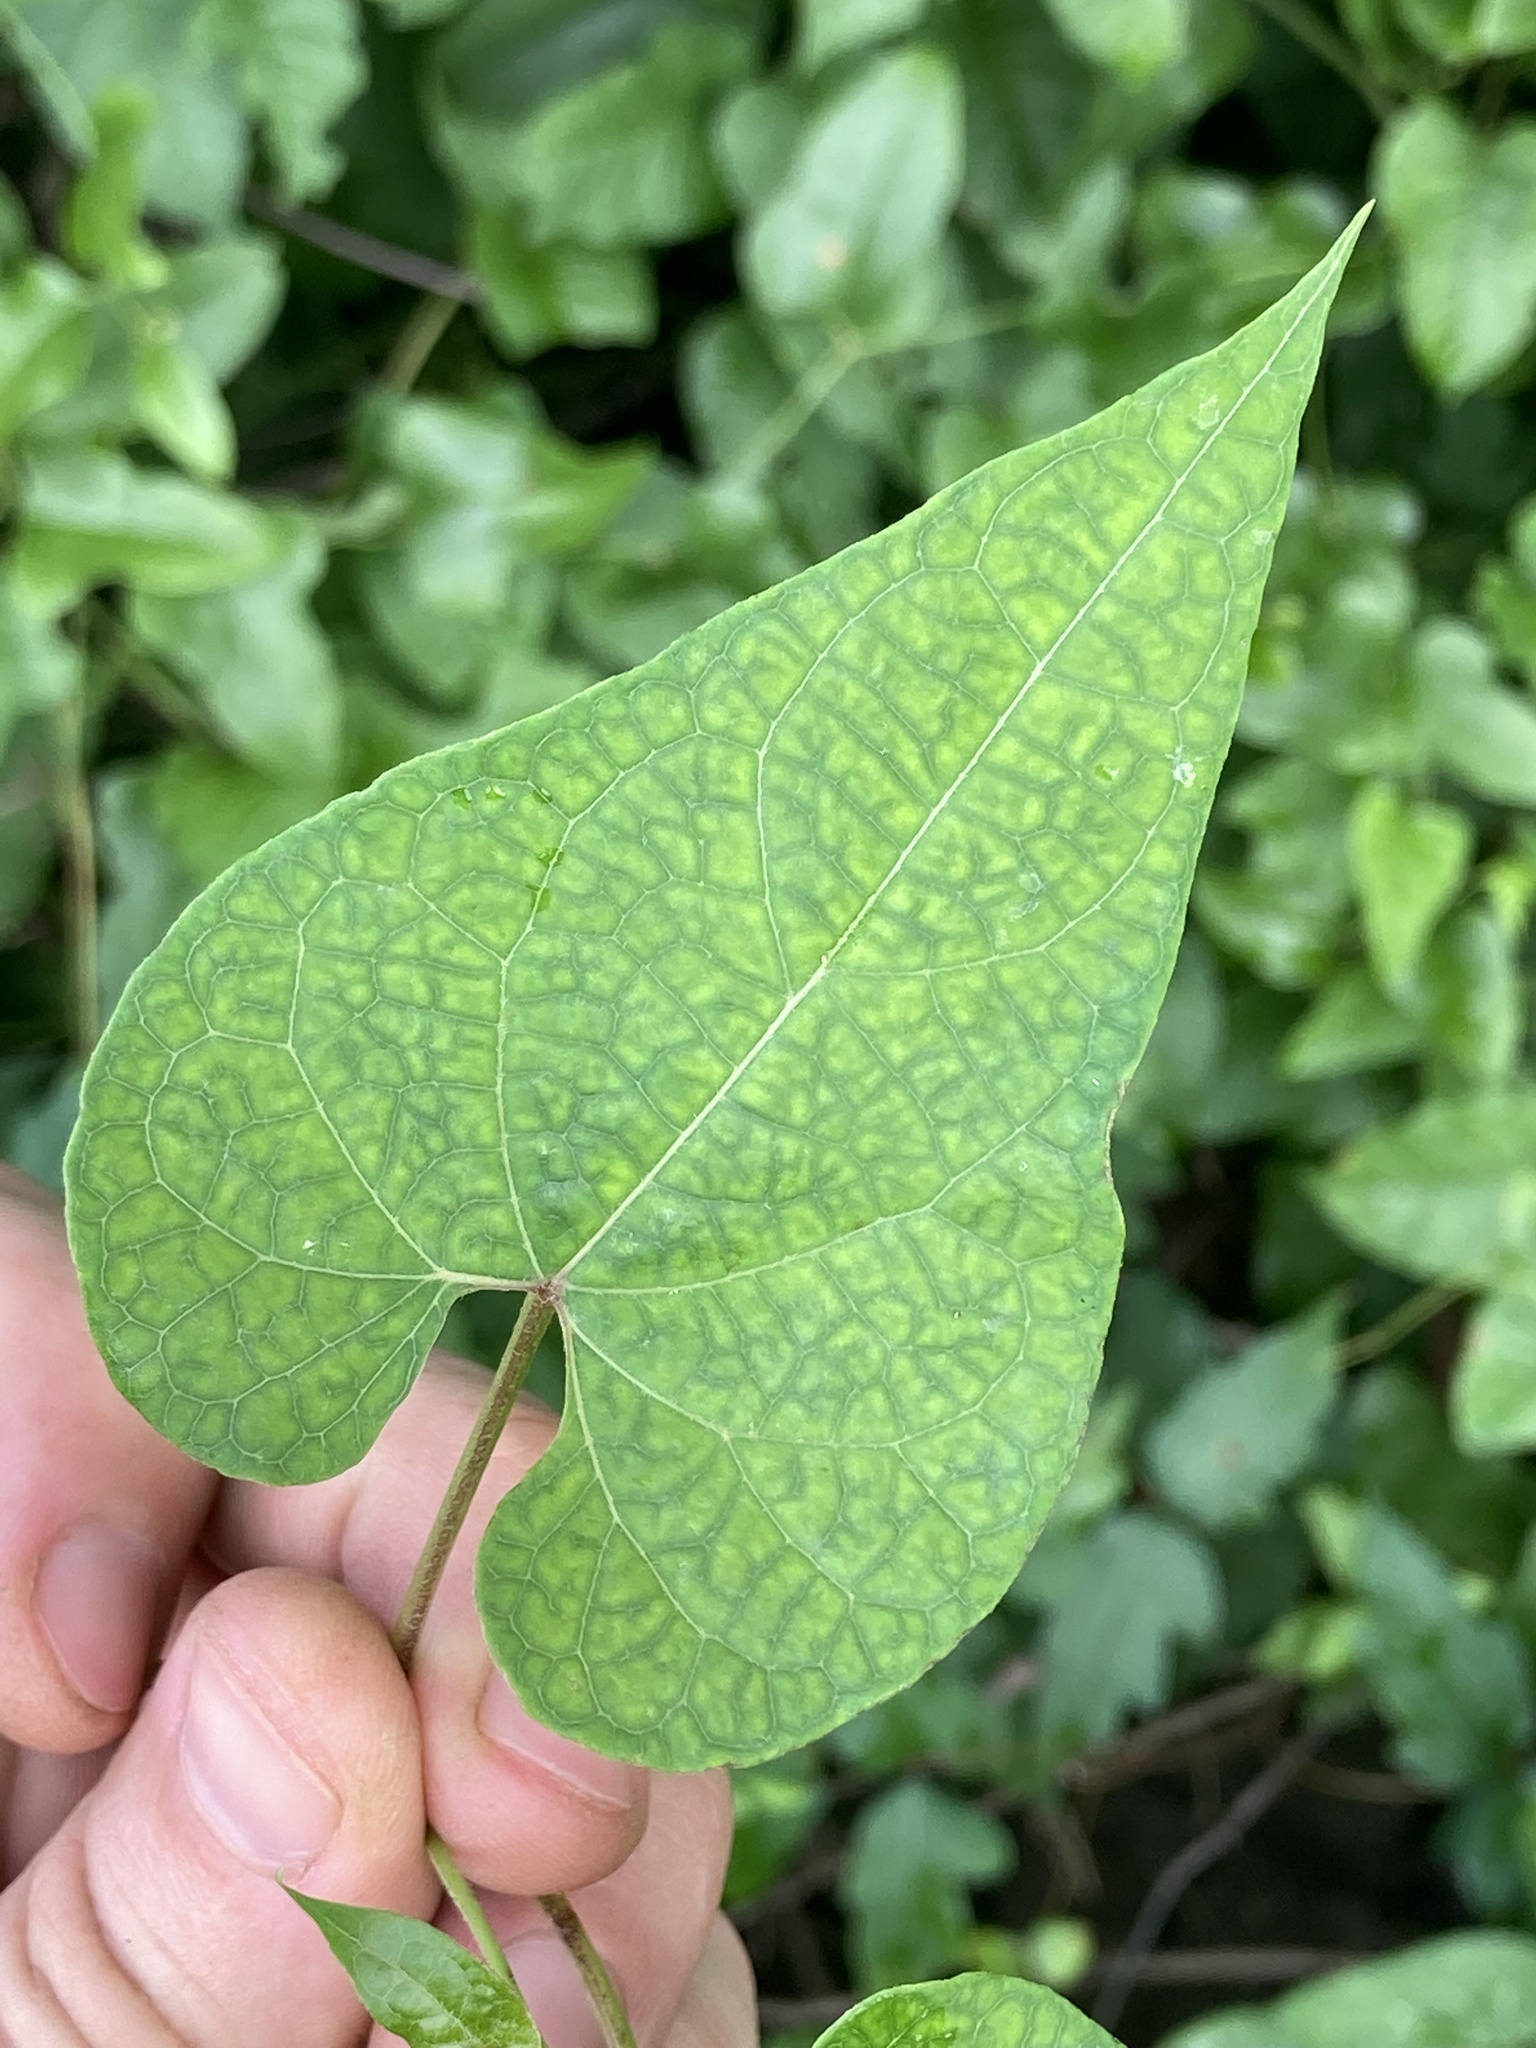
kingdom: Plantae
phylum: Tracheophyta
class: Magnoliopsida
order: Gentianales
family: Apocynaceae
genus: Cynanchum
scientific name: Cynanchum laeve
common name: Sandvine
